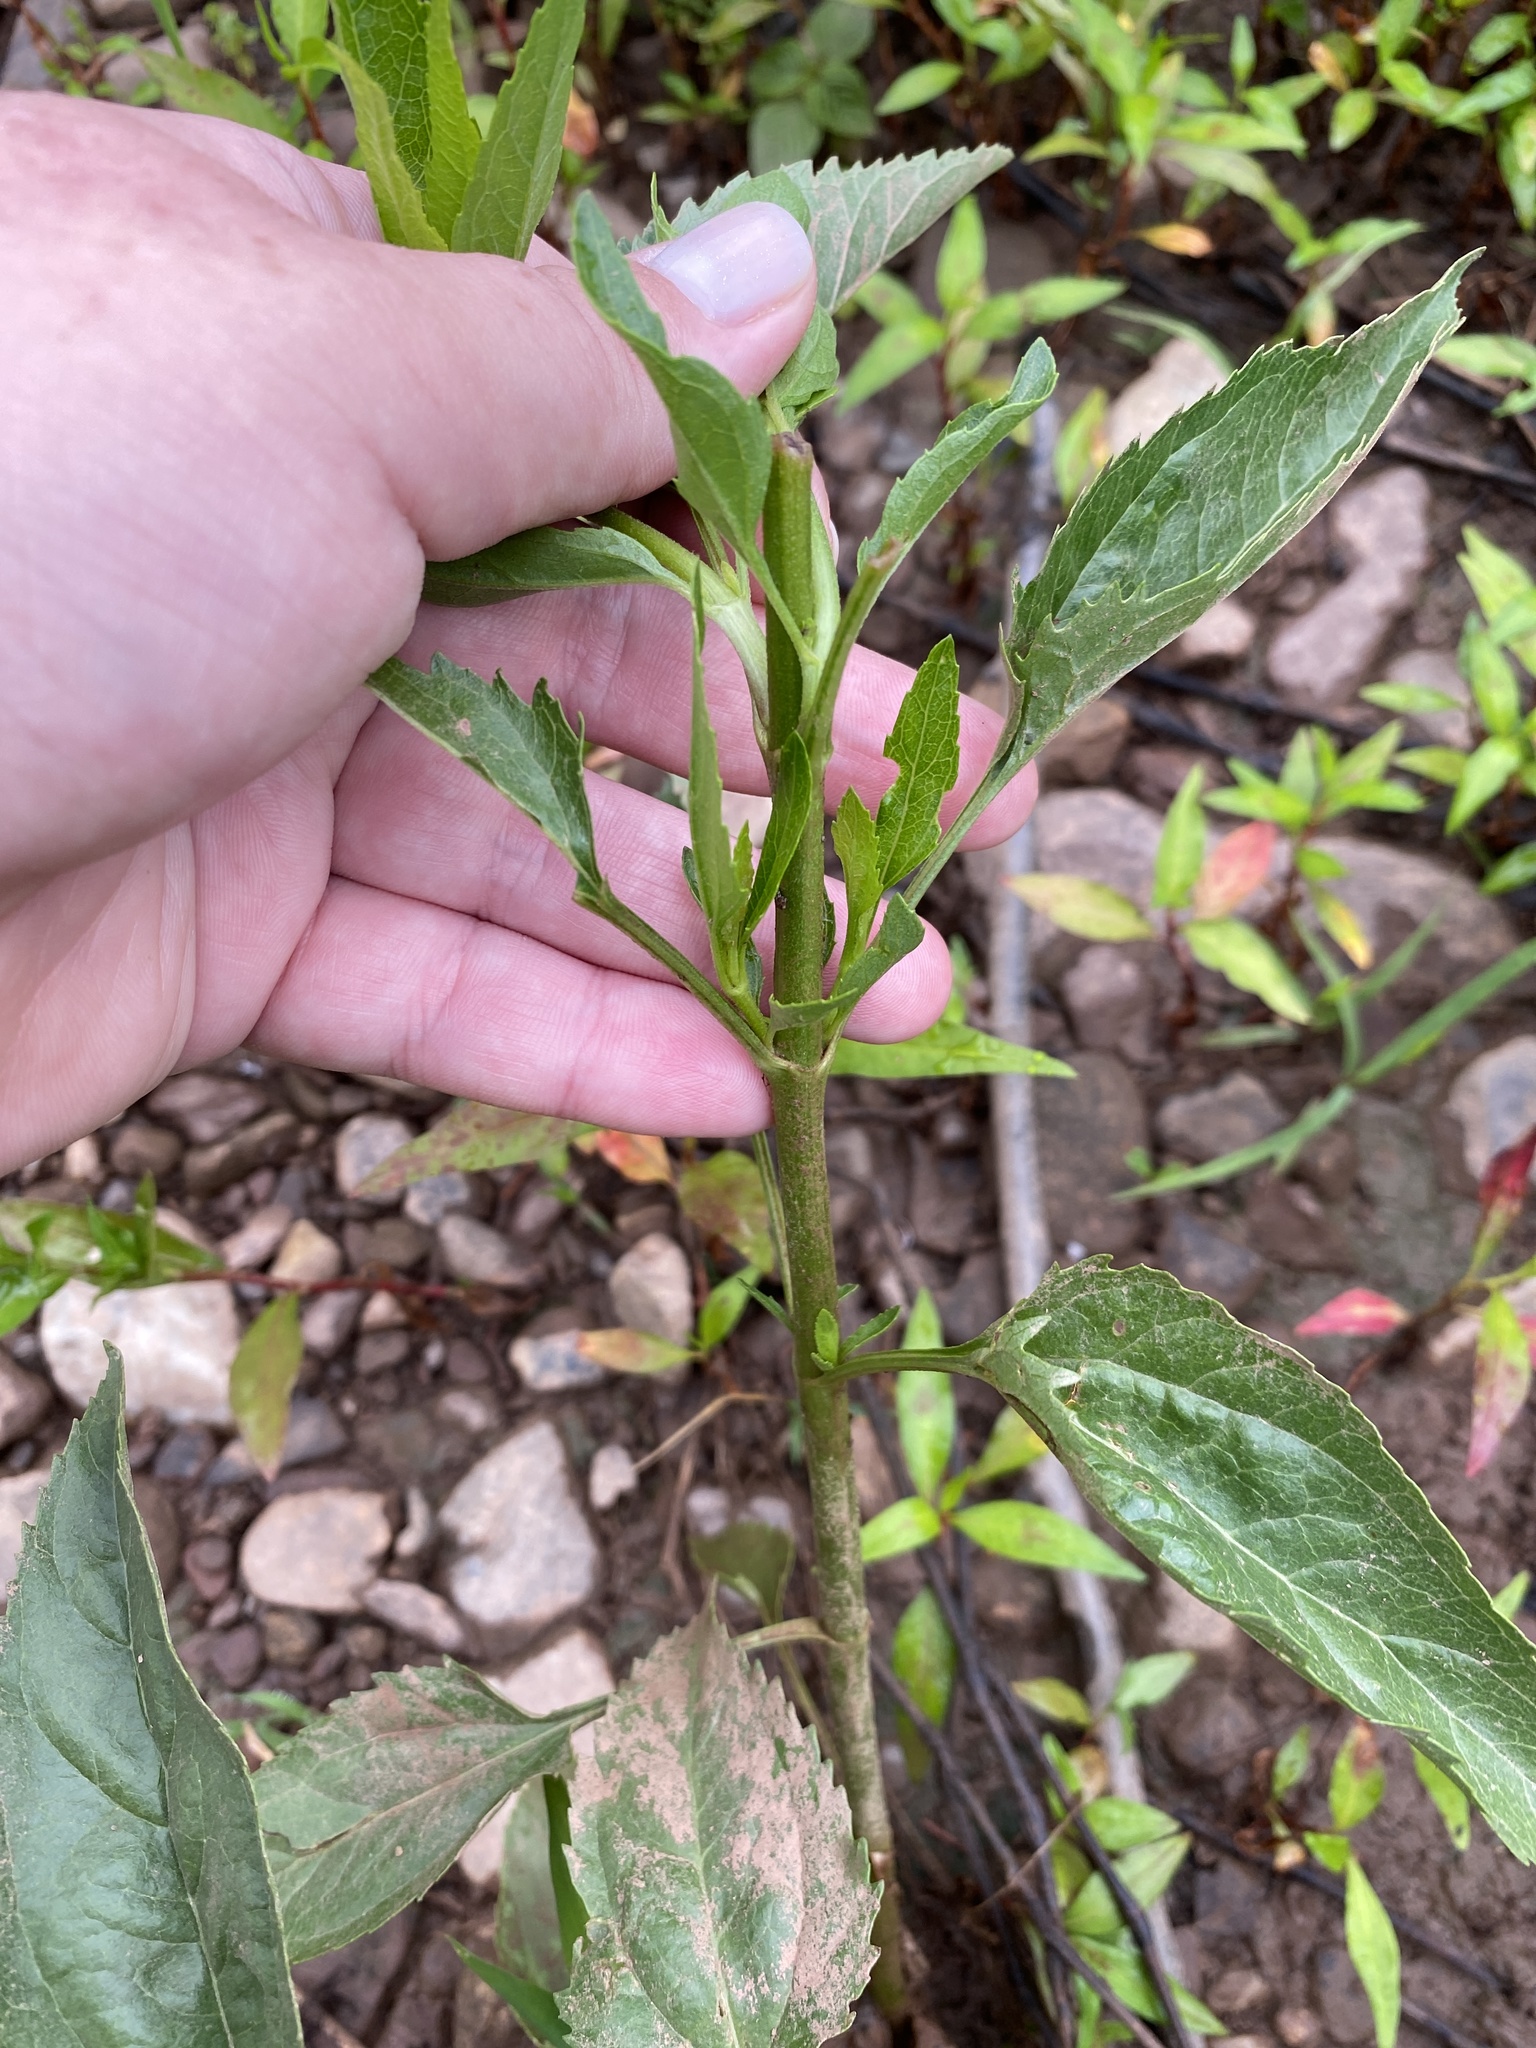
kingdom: Plantae
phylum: Tracheophyta
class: Magnoliopsida
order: Asterales
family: Asteraceae
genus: Eupatorium
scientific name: Eupatorium serotinum
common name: Late boneset
